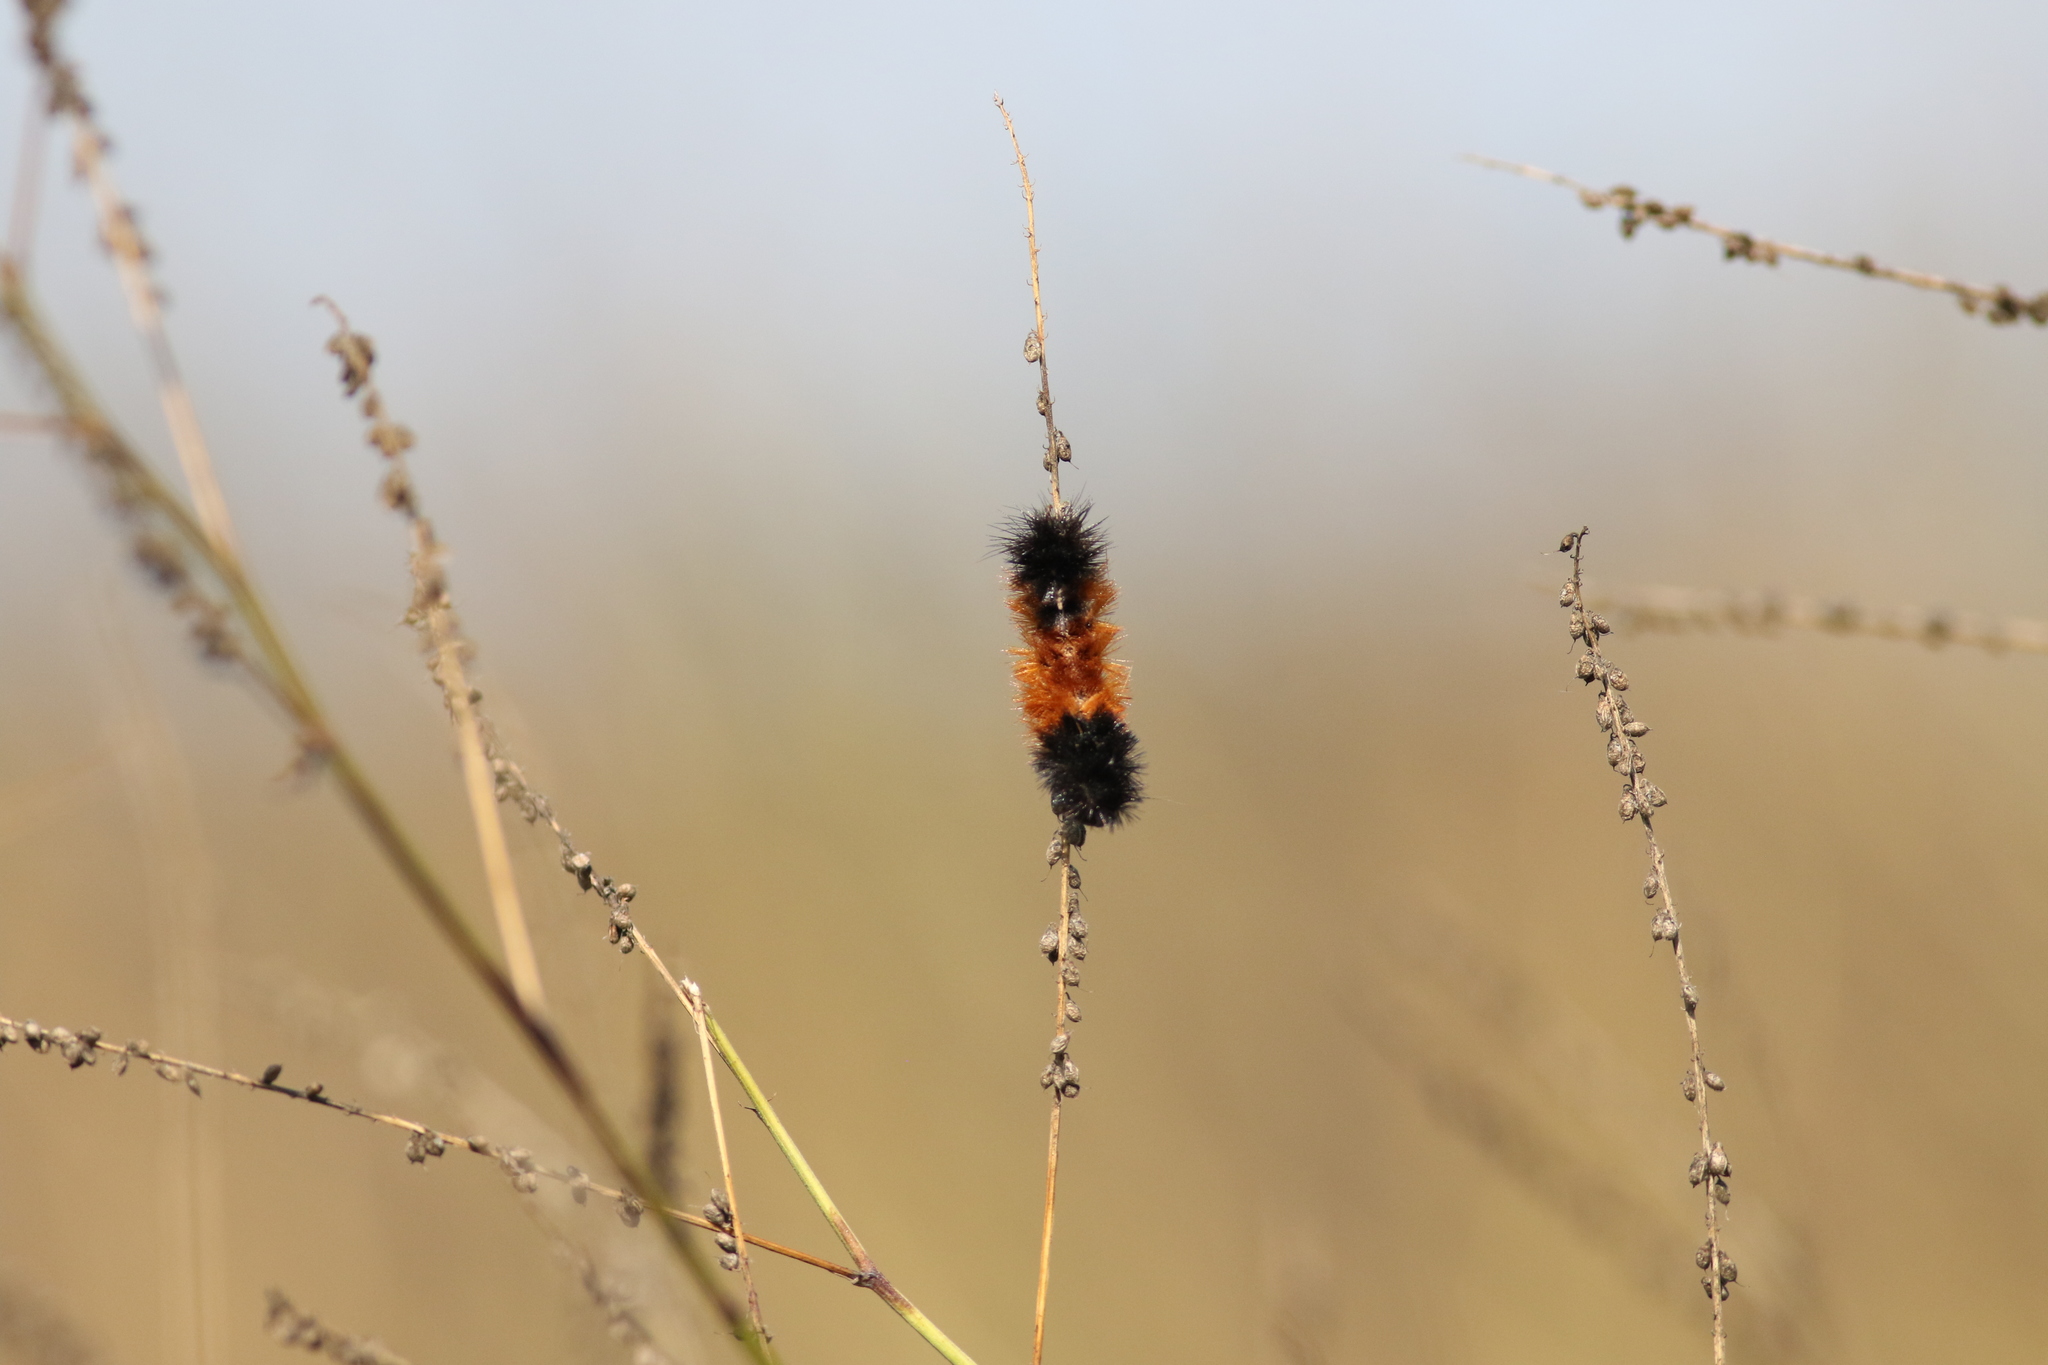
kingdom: Animalia
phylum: Arthropoda
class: Insecta
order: Lepidoptera
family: Erebidae
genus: Pyrrharctia
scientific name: Pyrrharctia isabella
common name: Isabella tiger moth
